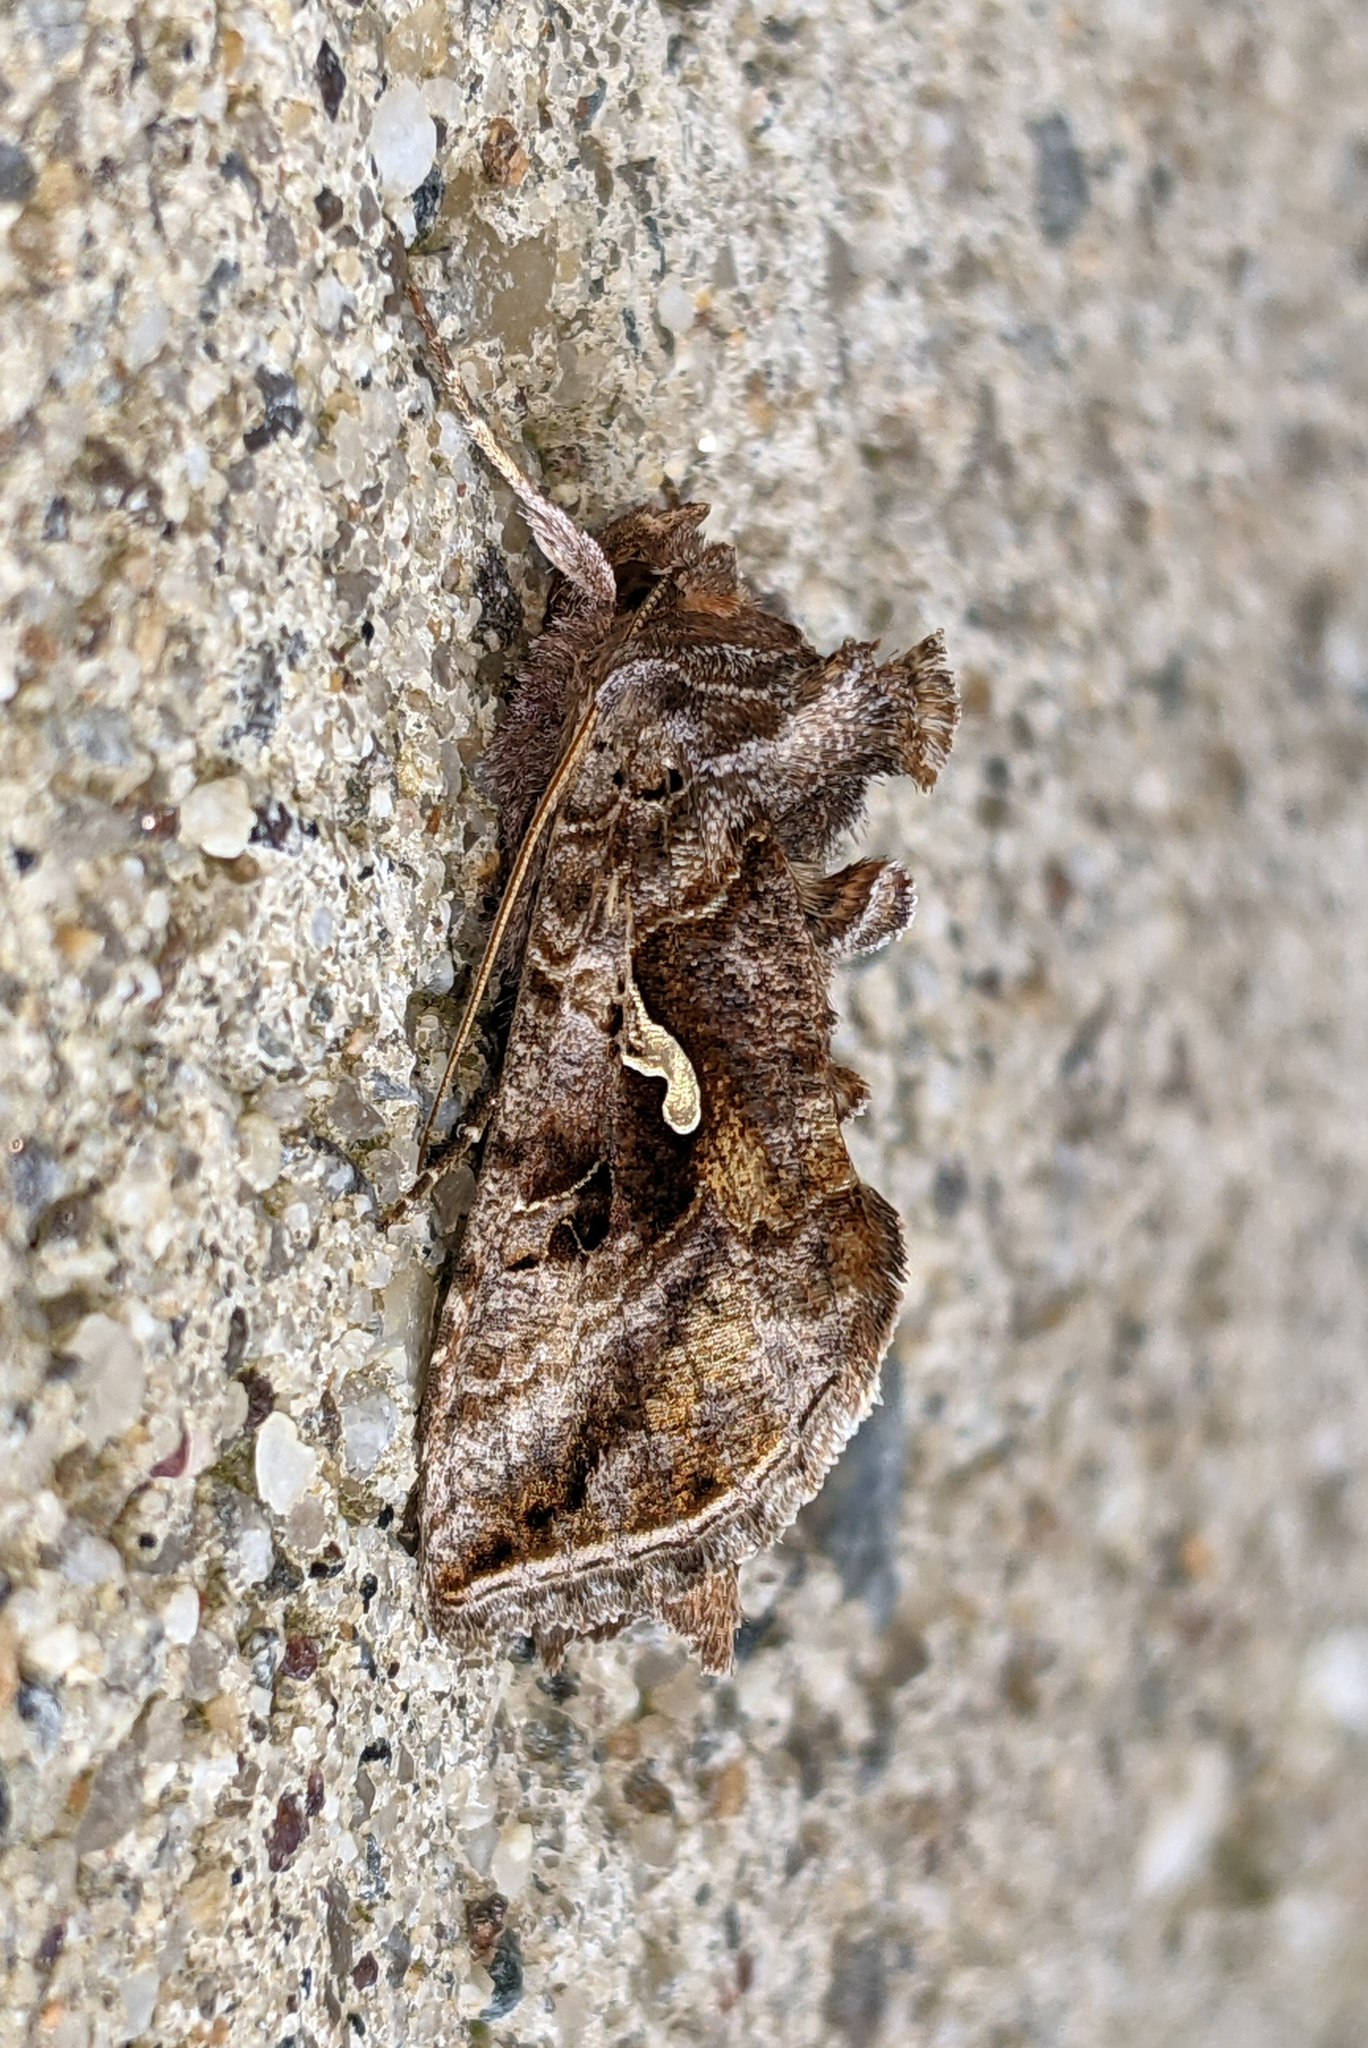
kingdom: Animalia
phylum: Arthropoda
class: Insecta
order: Lepidoptera
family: Noctuidae
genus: Autographa
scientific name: Autographa precationis
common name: Common looper moth
